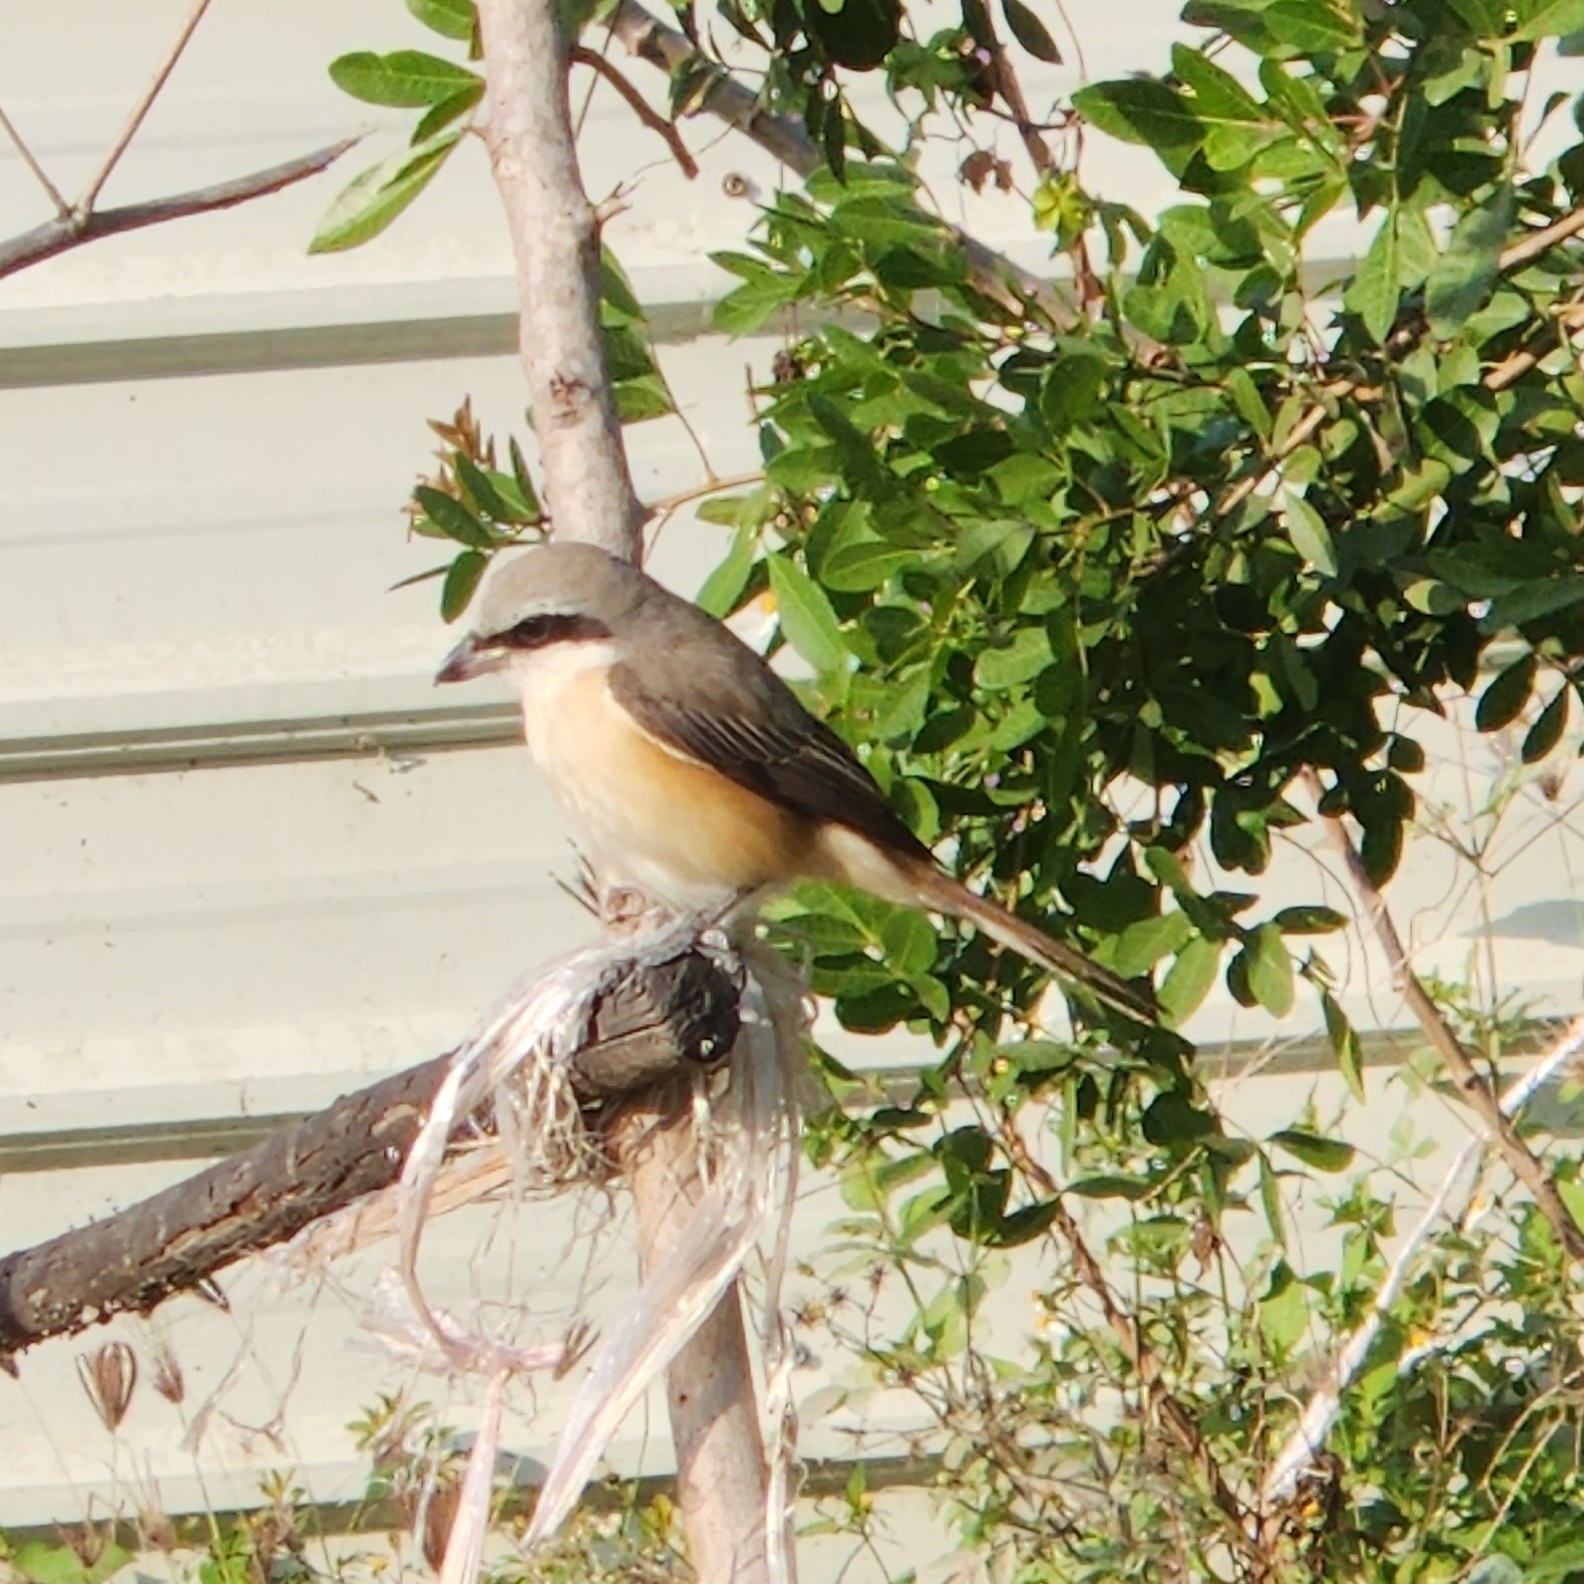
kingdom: Animalia
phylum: Chordata
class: Aves
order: Passeriformes
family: Laniidae
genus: Lanius
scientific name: Lanius cristatus
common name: Brown shrike
